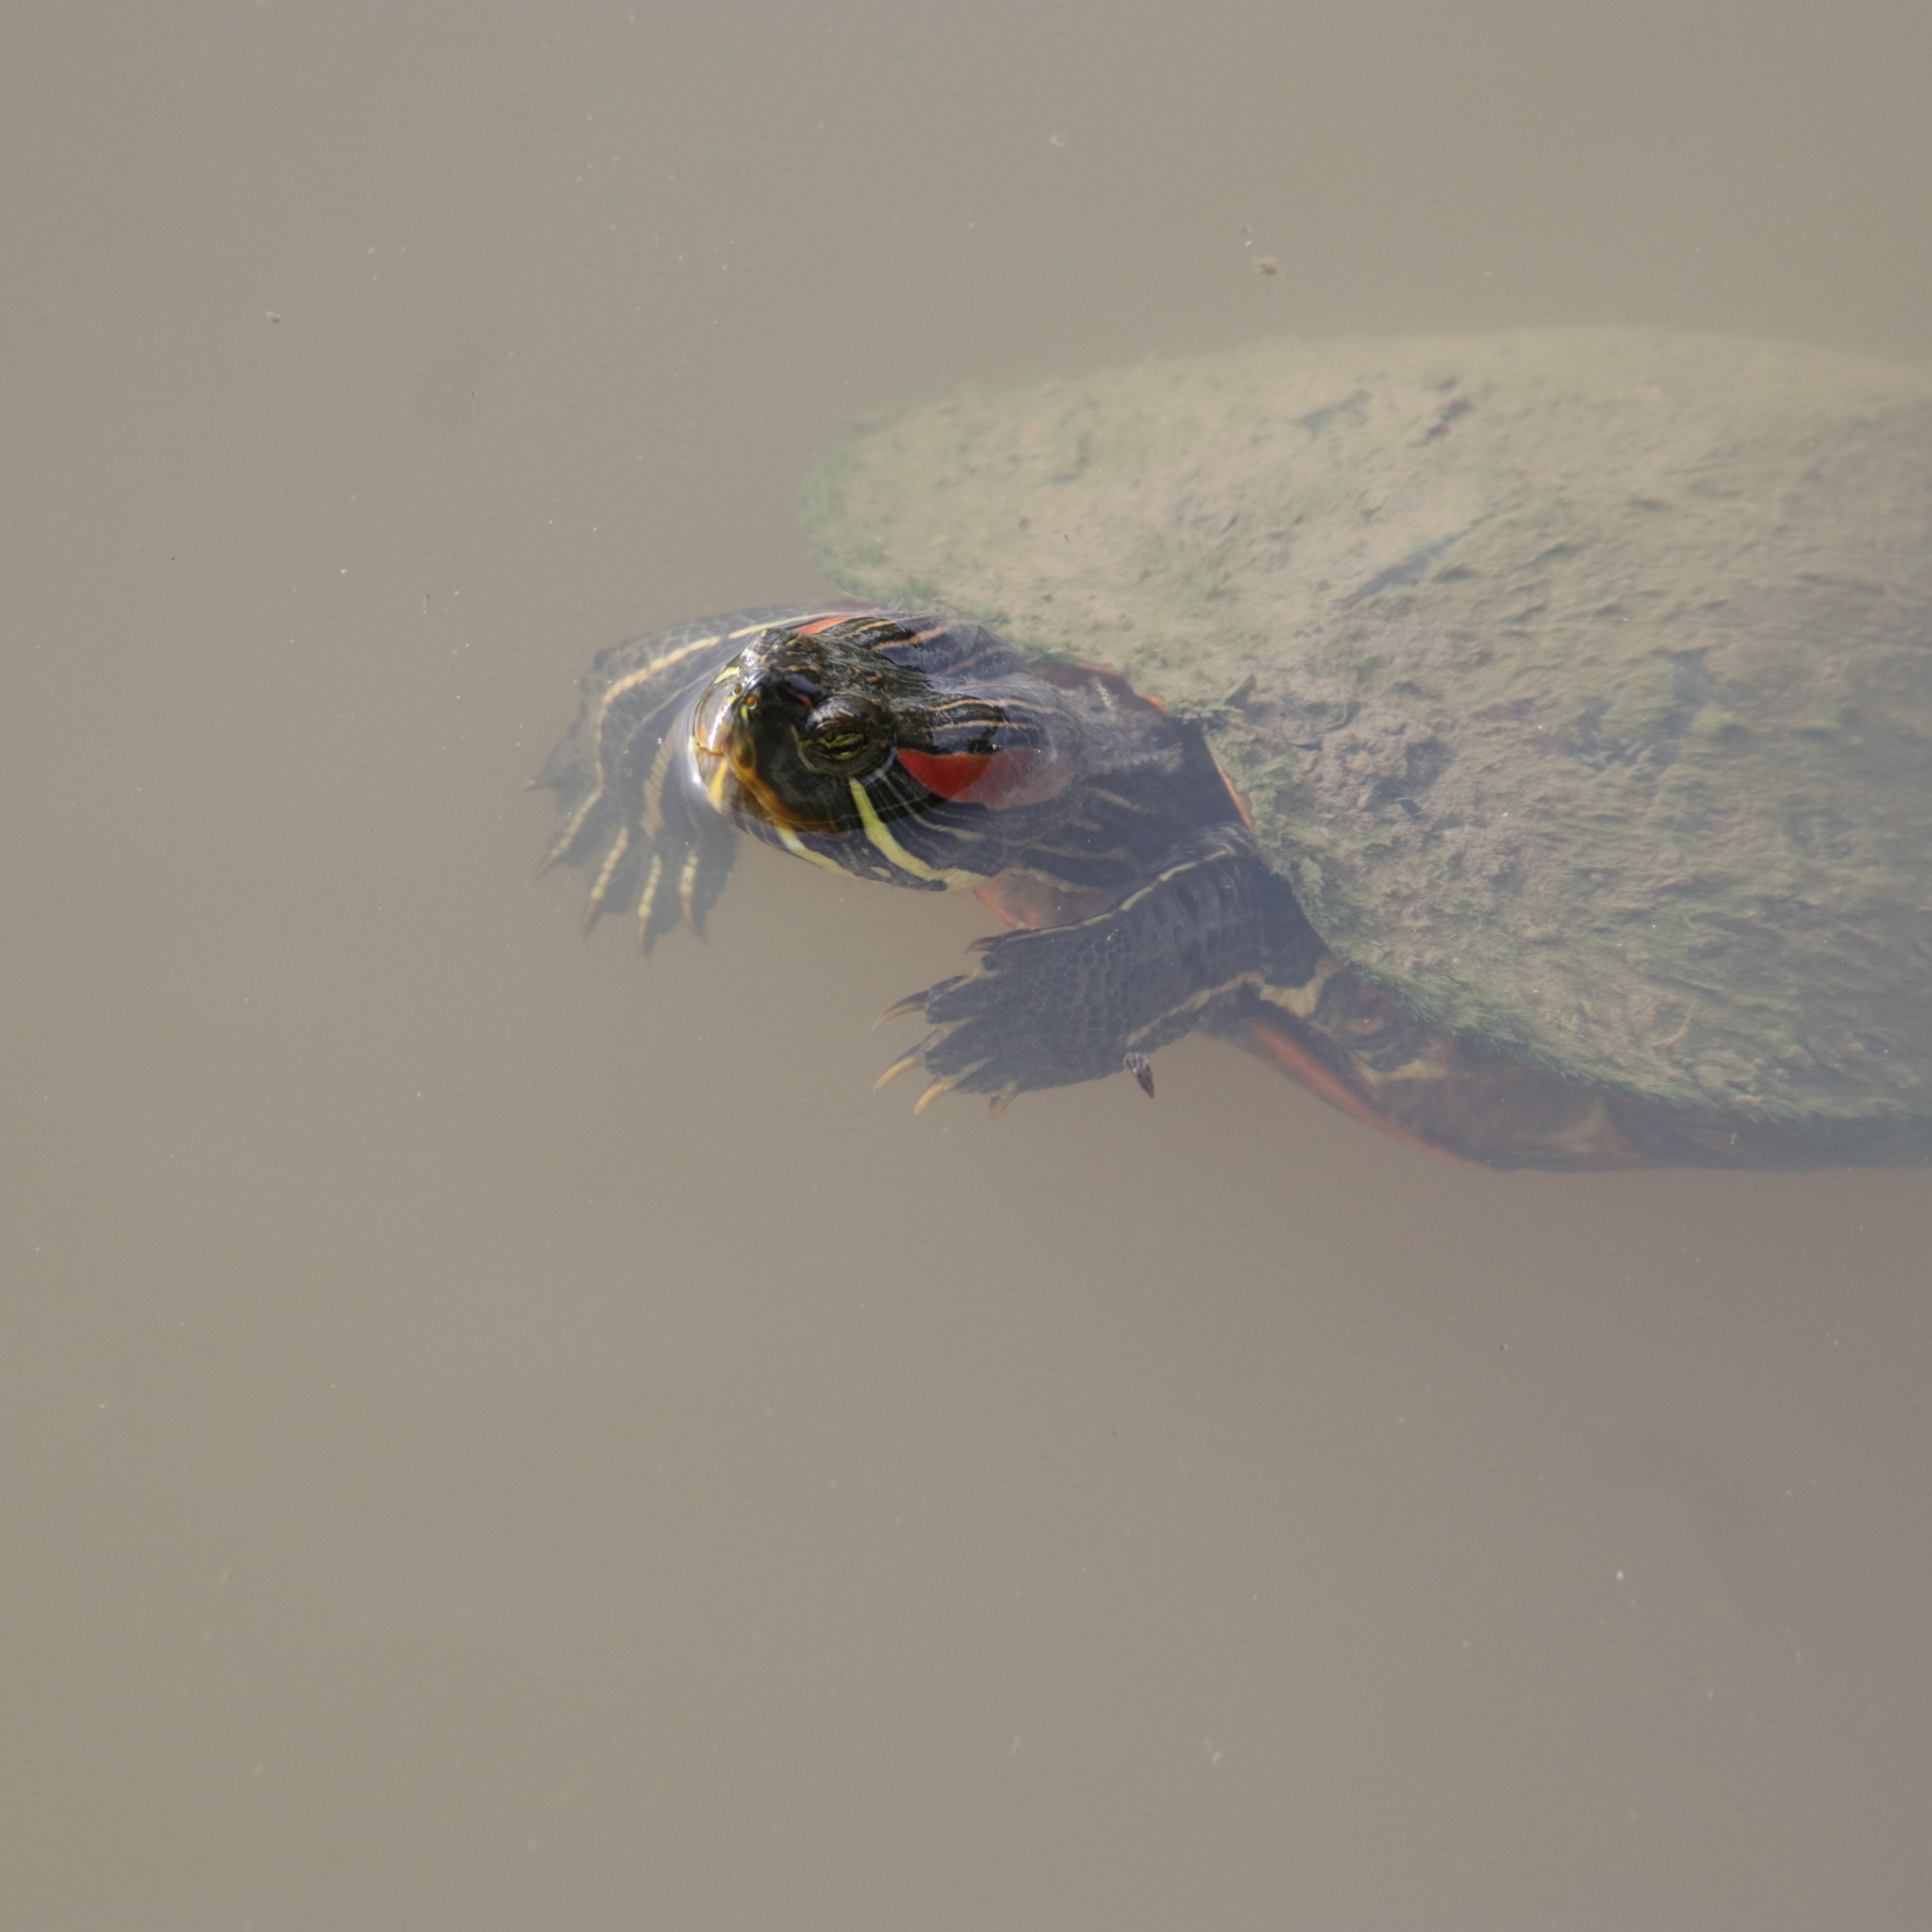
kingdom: Animalia
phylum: Chordata
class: Testudines
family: Emydidae
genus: Trachemys
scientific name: Trachemys scripta
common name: Slider
